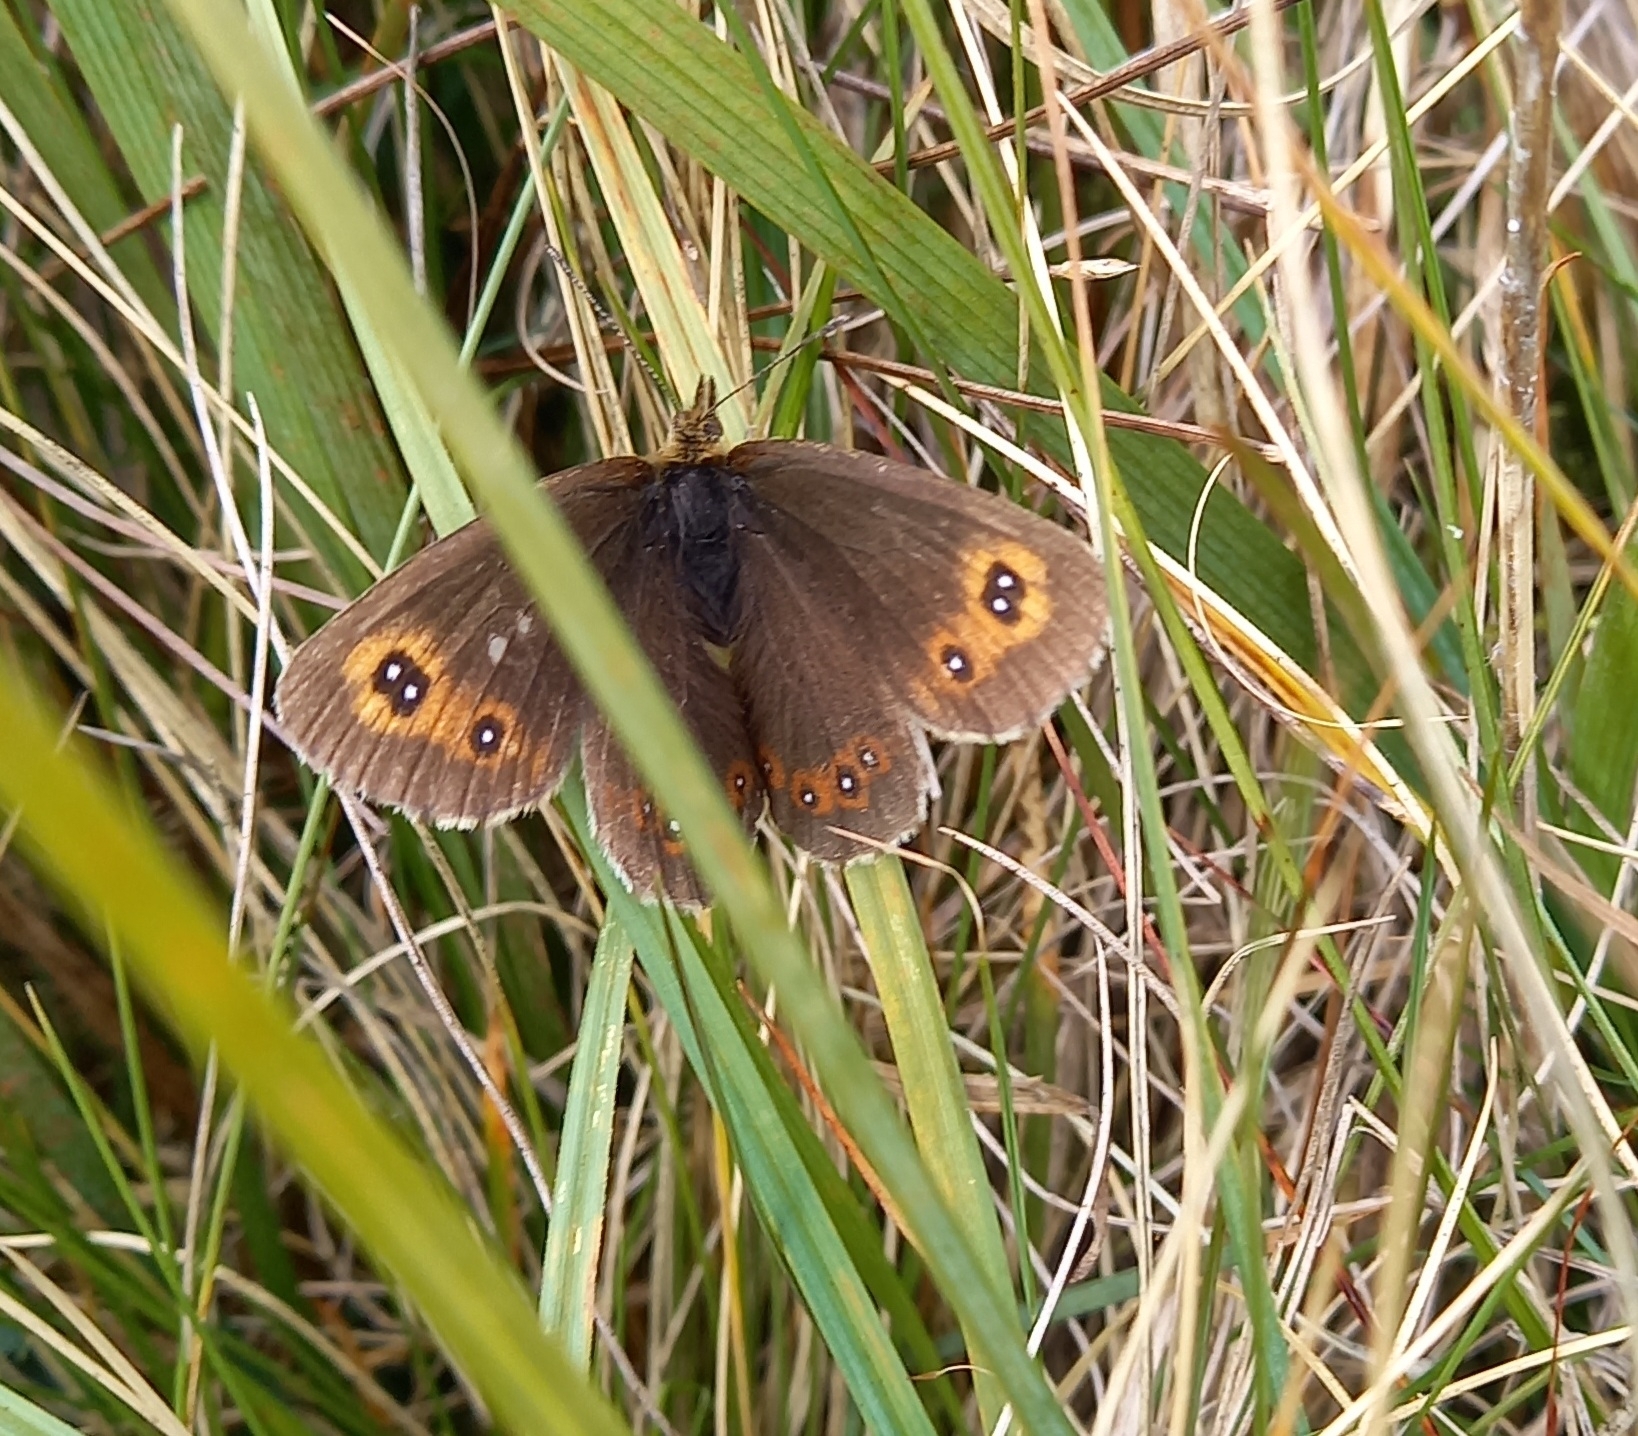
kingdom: Animalia
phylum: Arthropoda
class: Insecta
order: Lepidoptera
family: Nymphalidae
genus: Erebia
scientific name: Erebia aethiops
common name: Scotch argus
